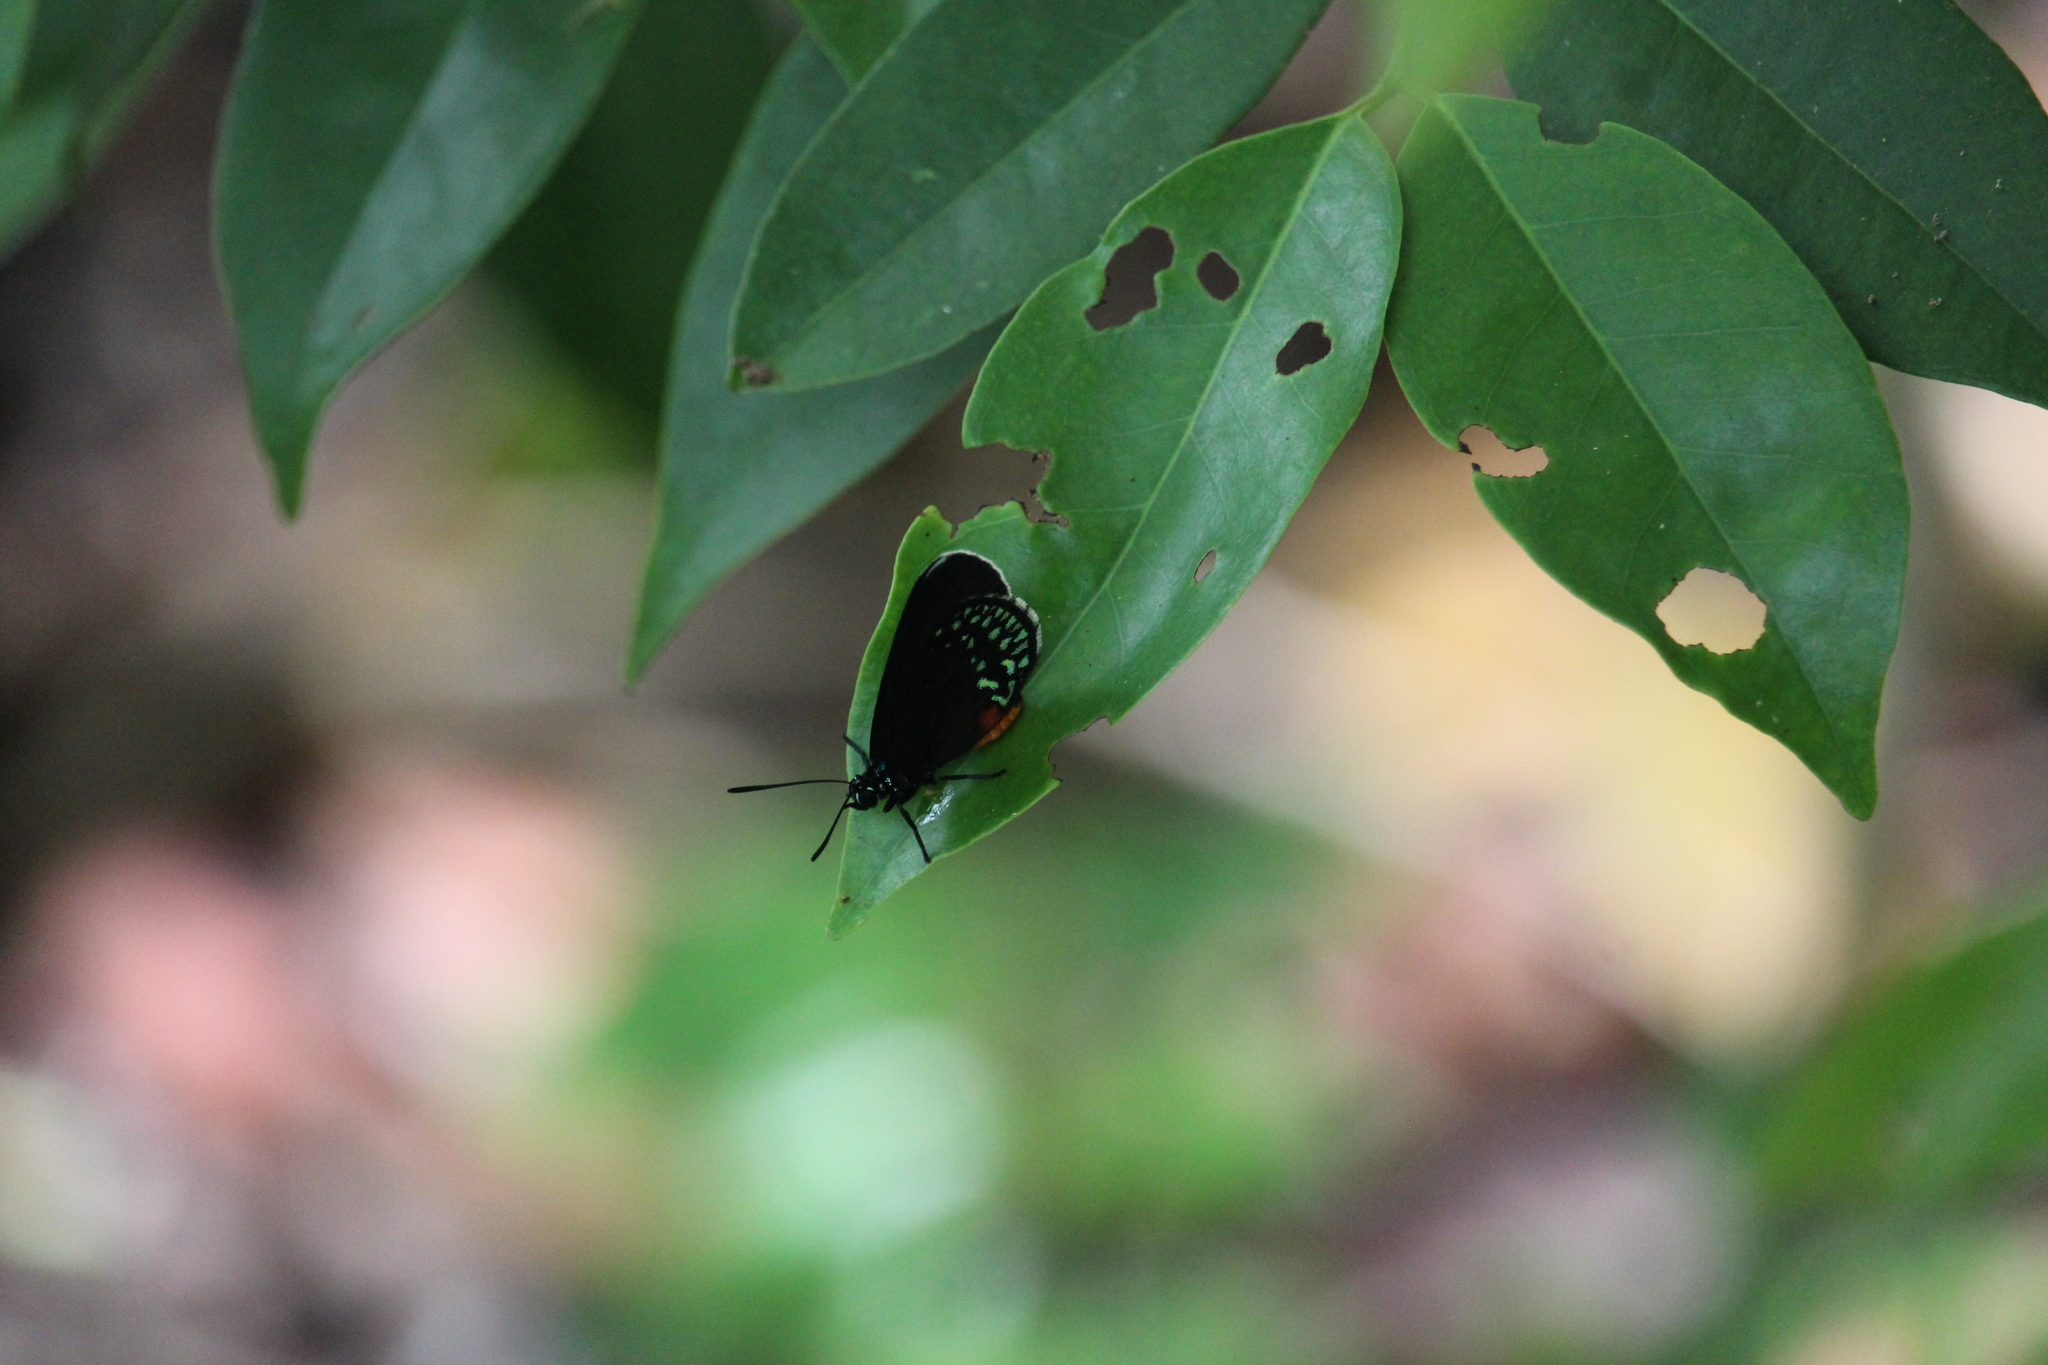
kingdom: Animalia
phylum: Arthropoda
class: Insecta
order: Lepidoptera
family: Lycaenidae
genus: Eumaeus
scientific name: Eumaeus toxea
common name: Mexican cycadian
